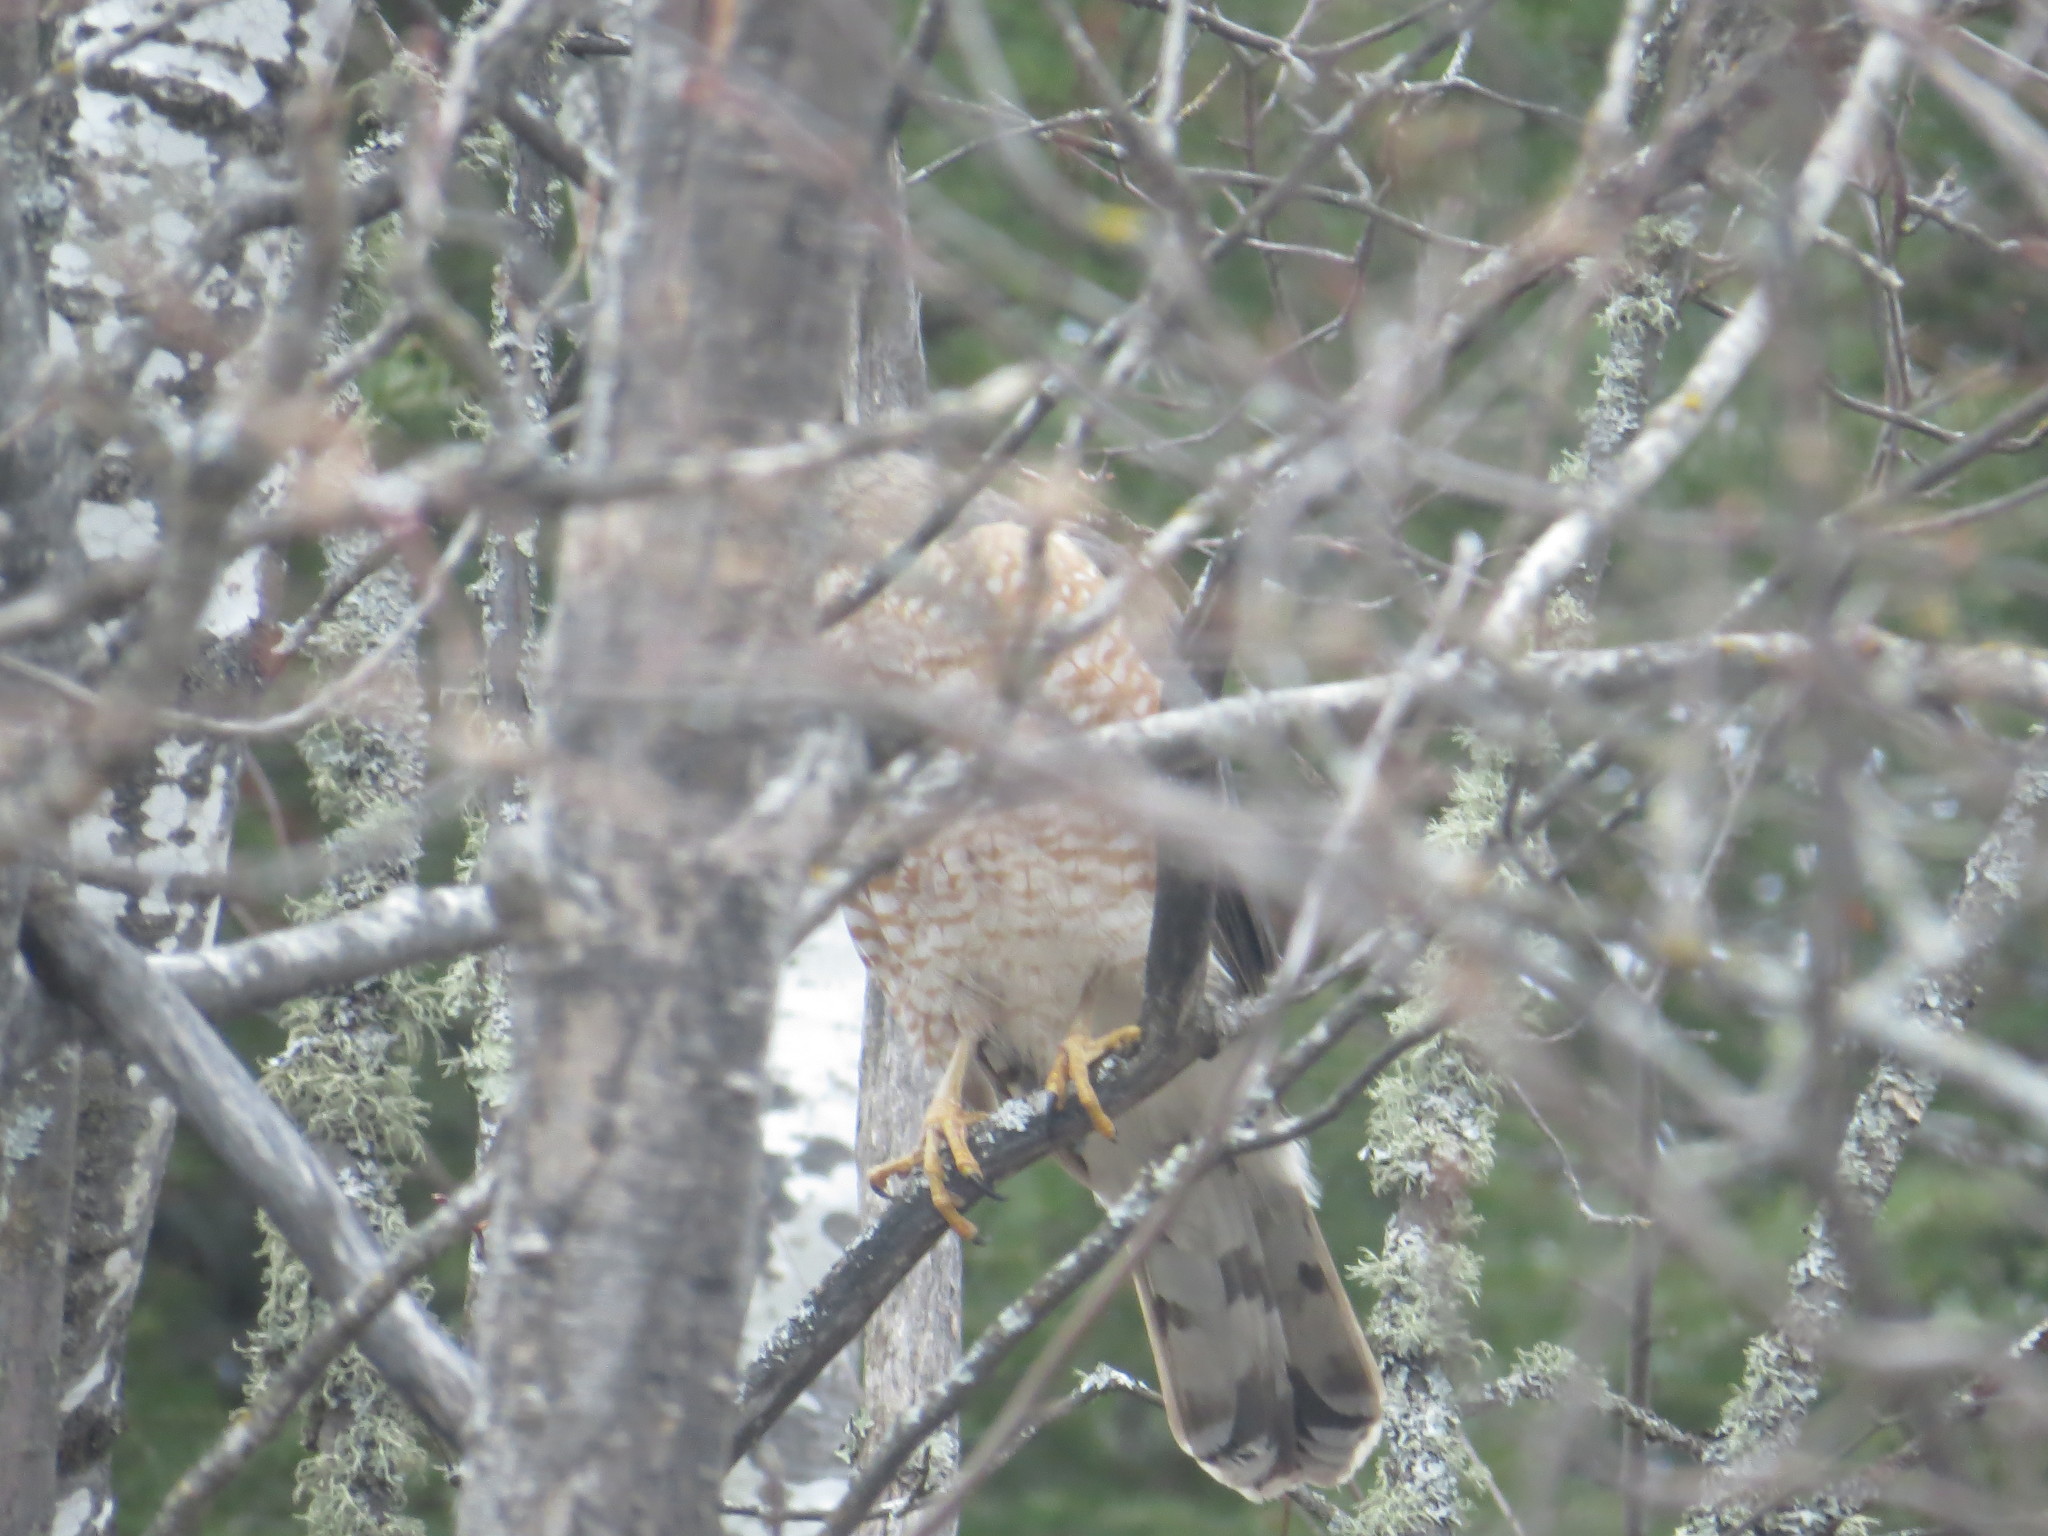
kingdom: Animalia
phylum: Chordata
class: Aves
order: Accipitriformes
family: Accipitridae
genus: Accipiter
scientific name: Accipiter cooperii
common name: Cooper's hawk
